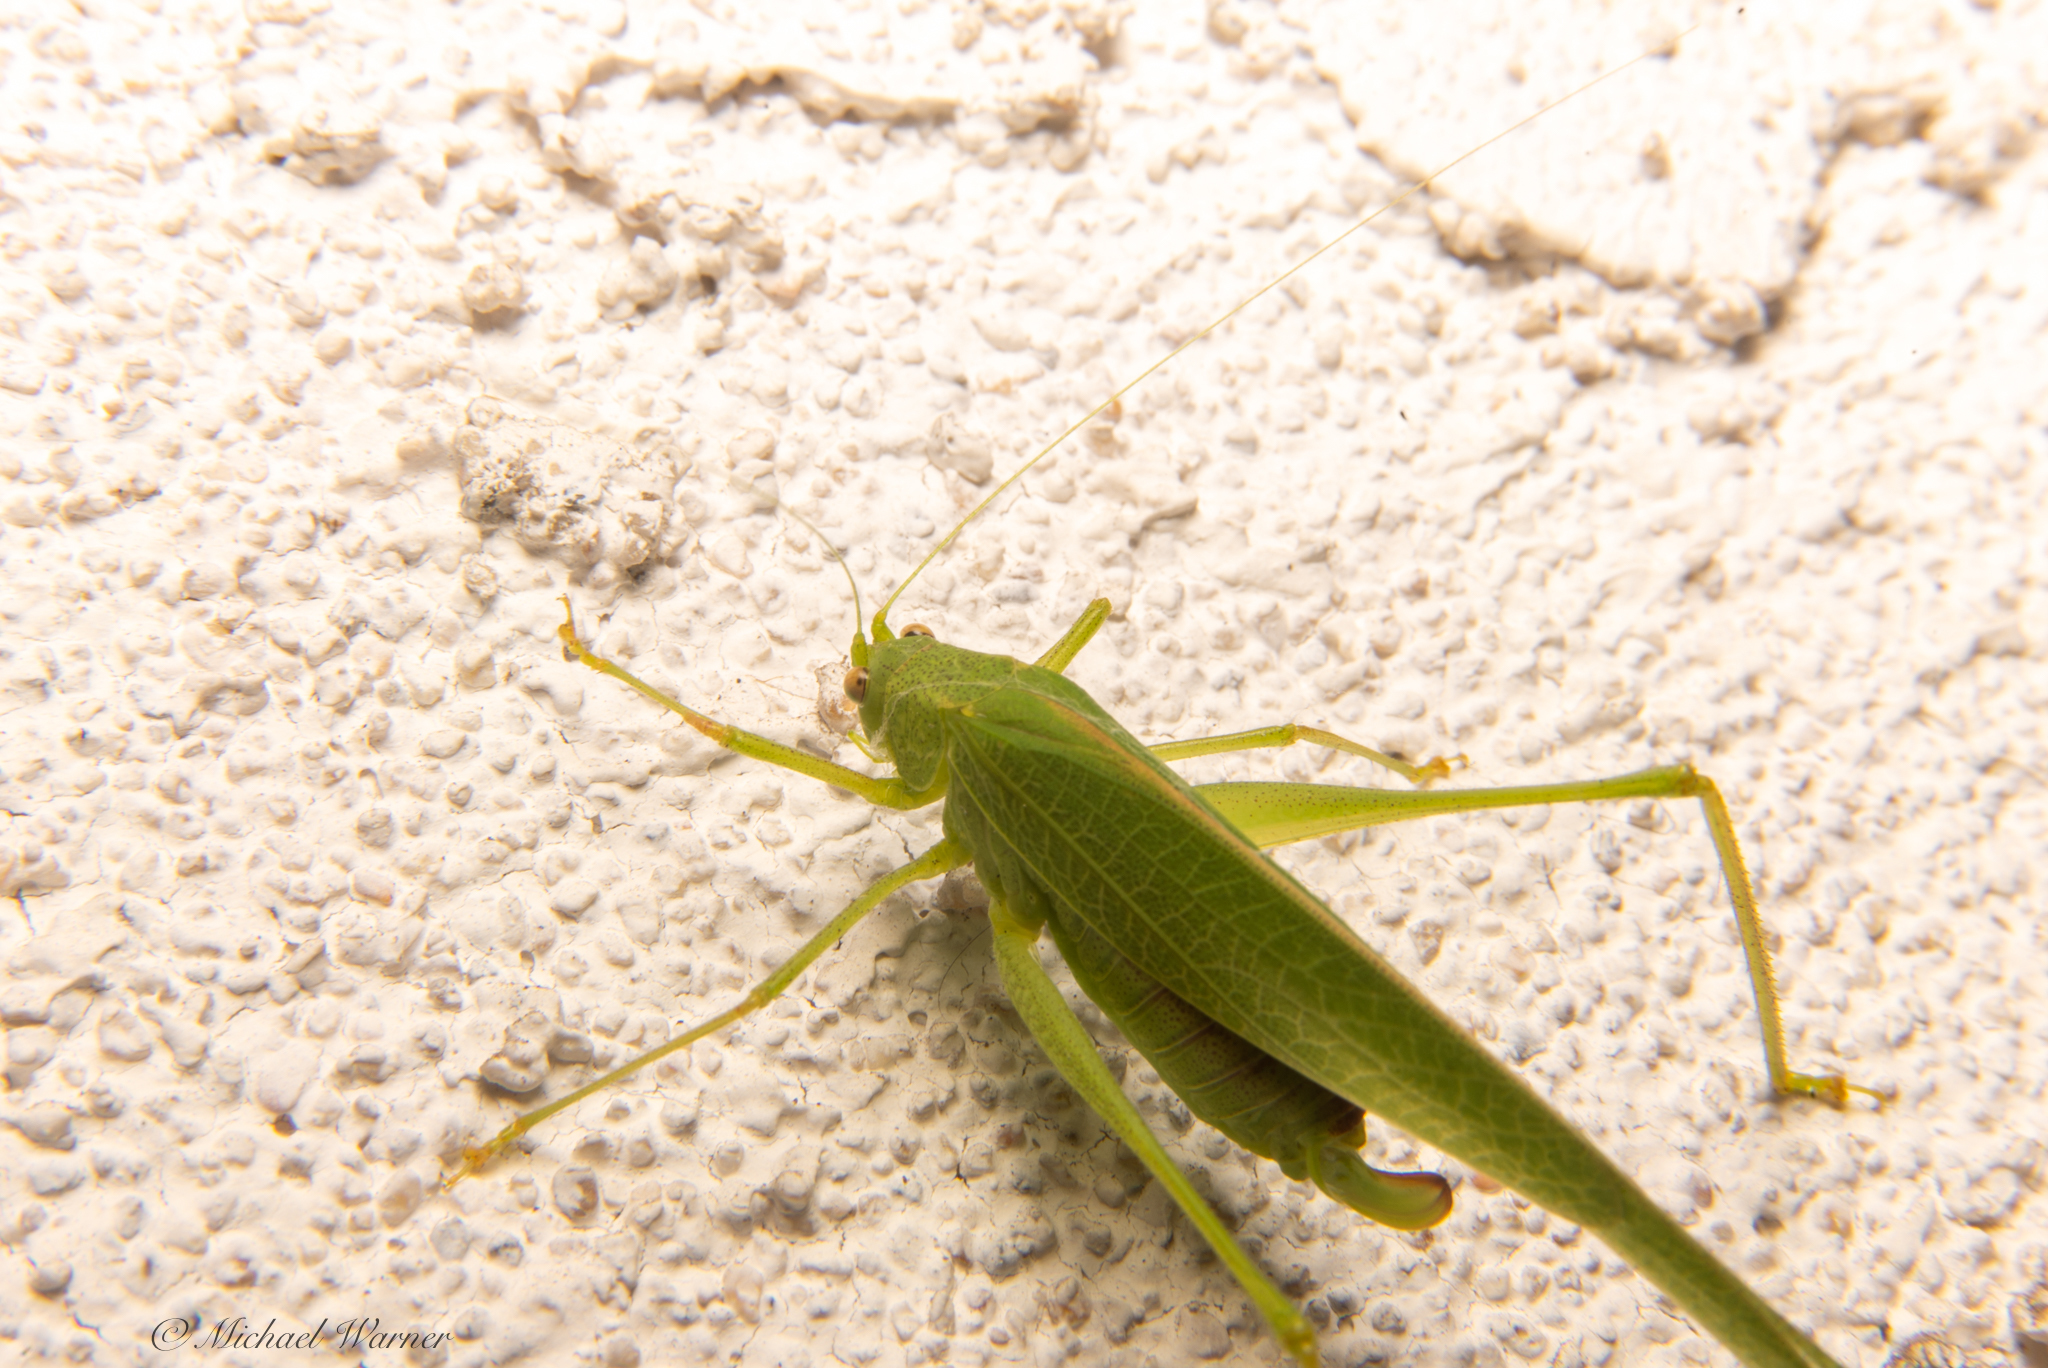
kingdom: Animalia
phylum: Arthropoda
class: Insecta
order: Orthoptera
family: Tettigoniidae
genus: Phaneroptera
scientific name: Phaneroptera nana
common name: Southern sickle bush-cricket
